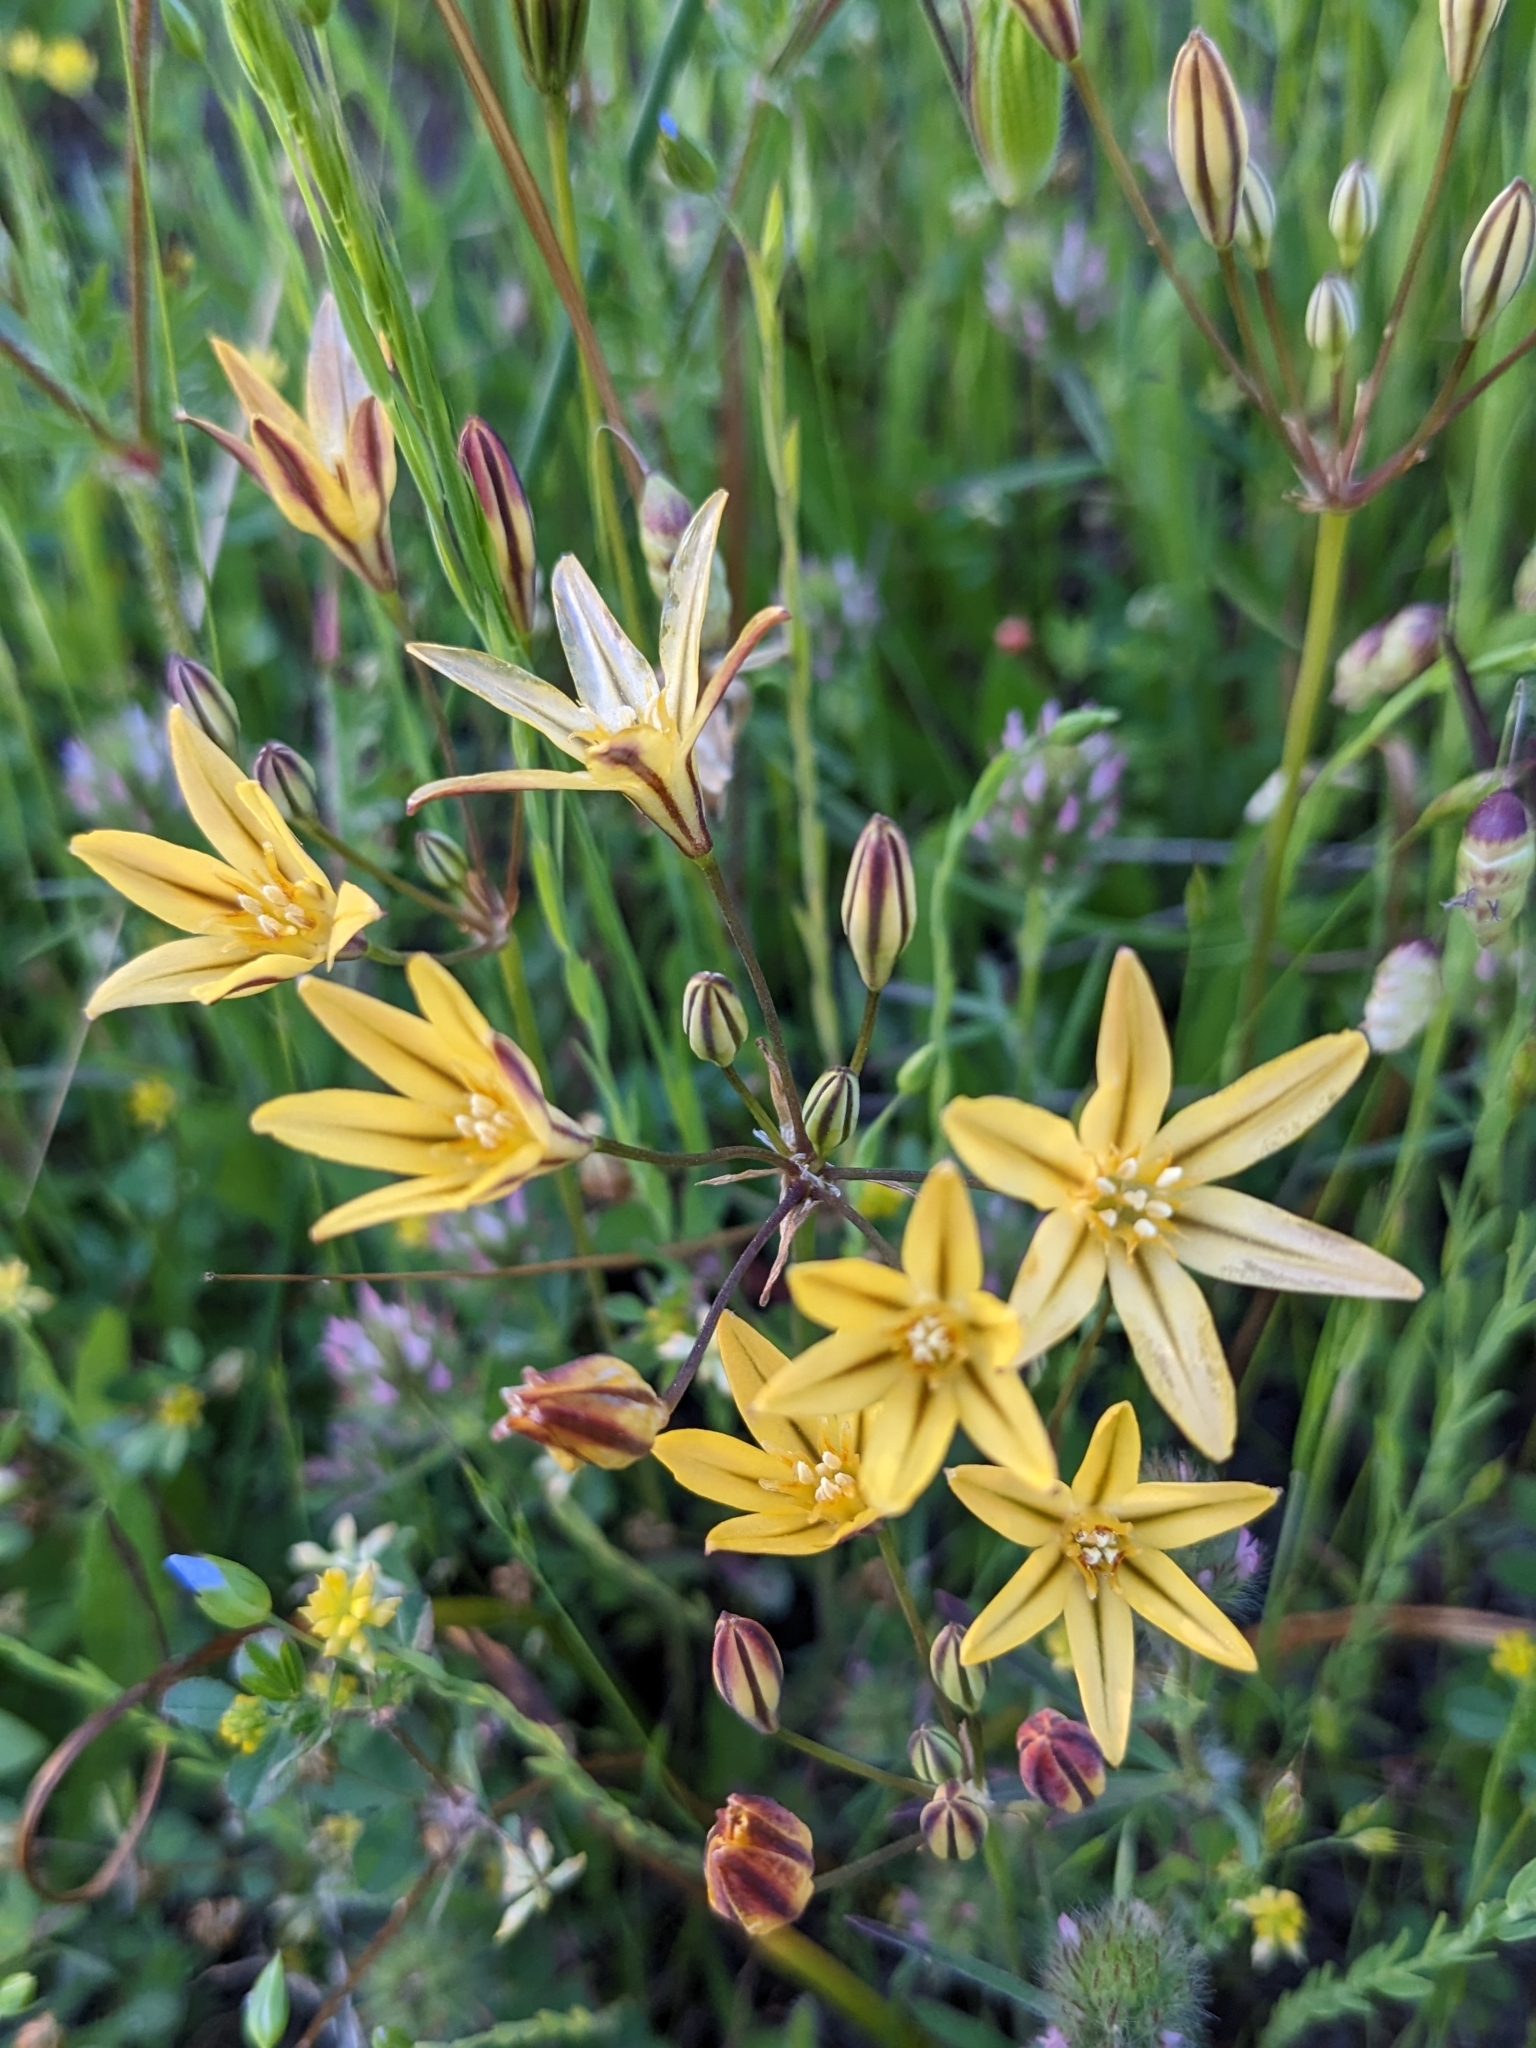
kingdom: Plantae
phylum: Tracheophyta
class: Liliopsida
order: Asparagales
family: Asparagaceae
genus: Triteleia
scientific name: Triteleia ixioides
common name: Yellow-brodiaea
